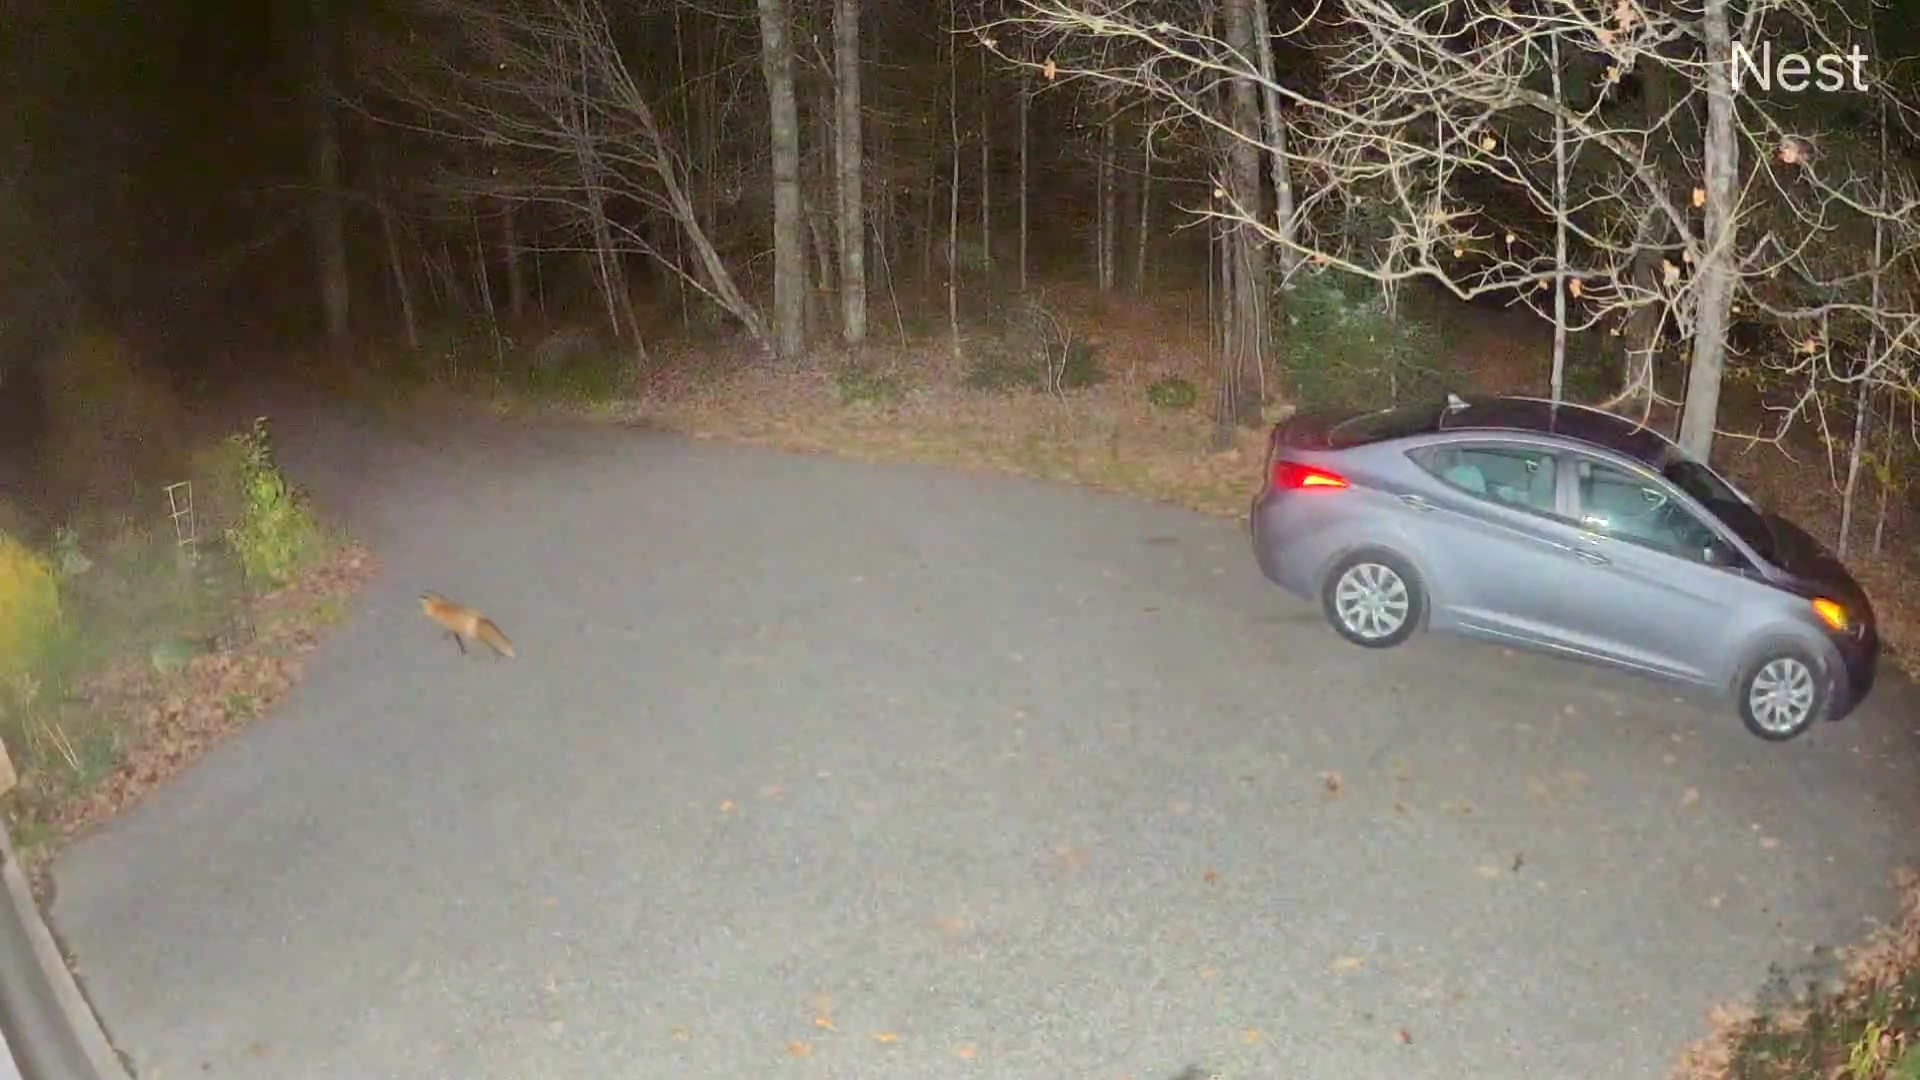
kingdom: Animalia
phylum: Chordata
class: Mammalia
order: Carnivora
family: Canidae
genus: Vulpes
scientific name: Vulpes vulpes
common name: Red fox
